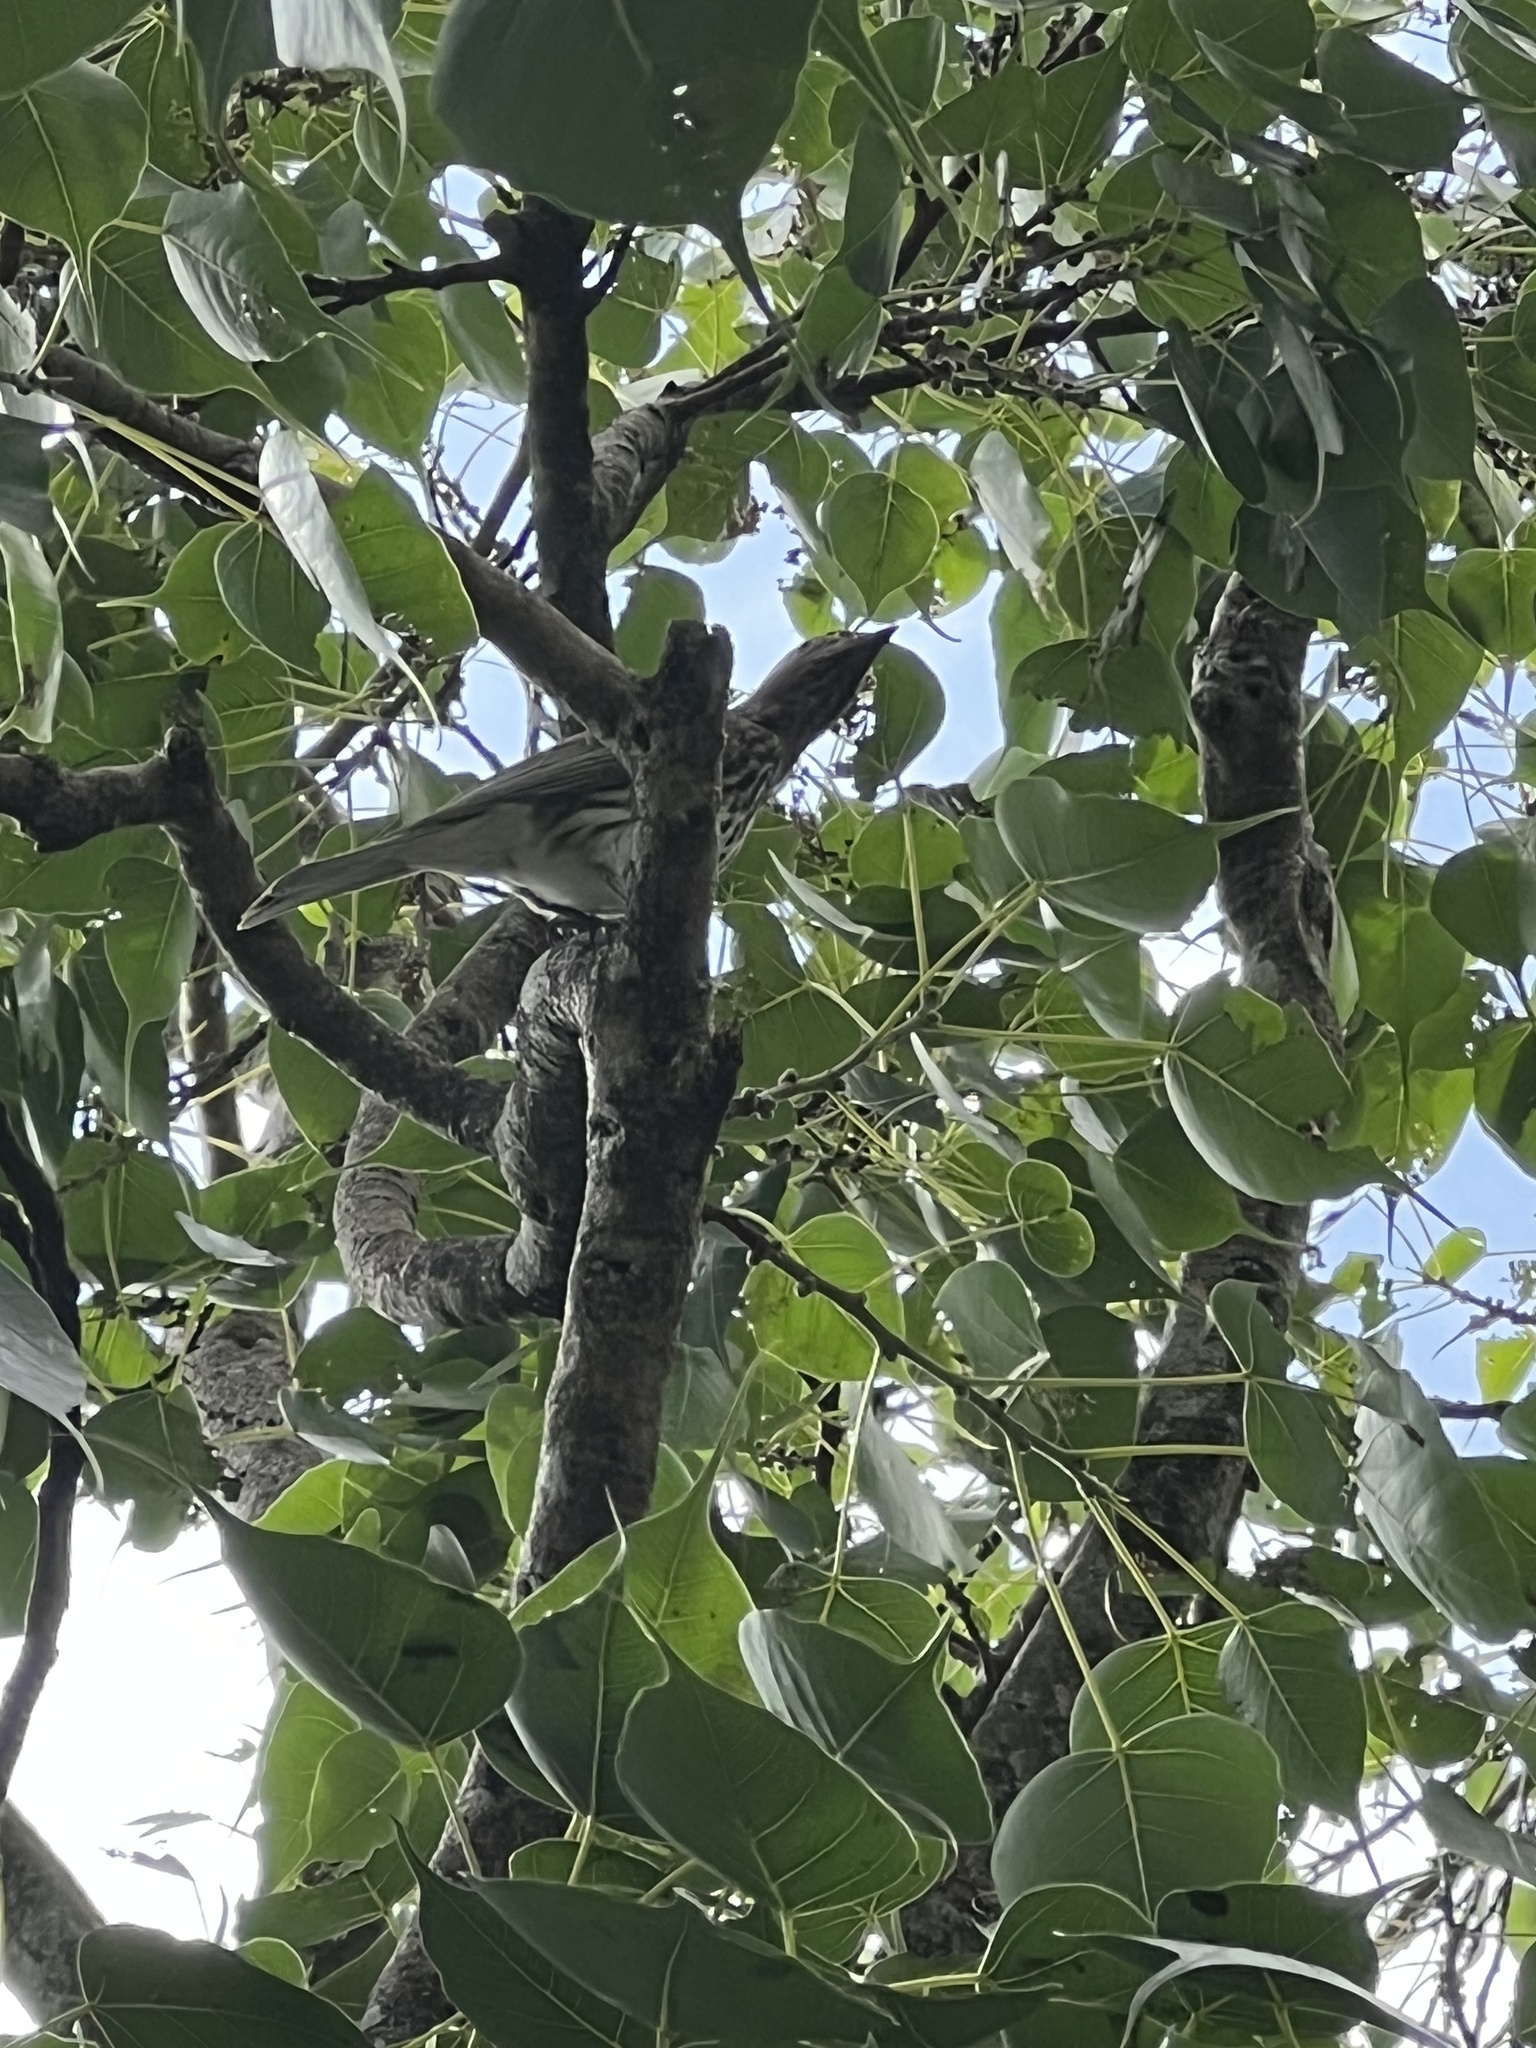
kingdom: Animalia
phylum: Chordata
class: Aves
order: Passeriformes
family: Oriolidae
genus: Sphecotheres
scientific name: Sphecotheres vieilloti
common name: Australasian figbird
